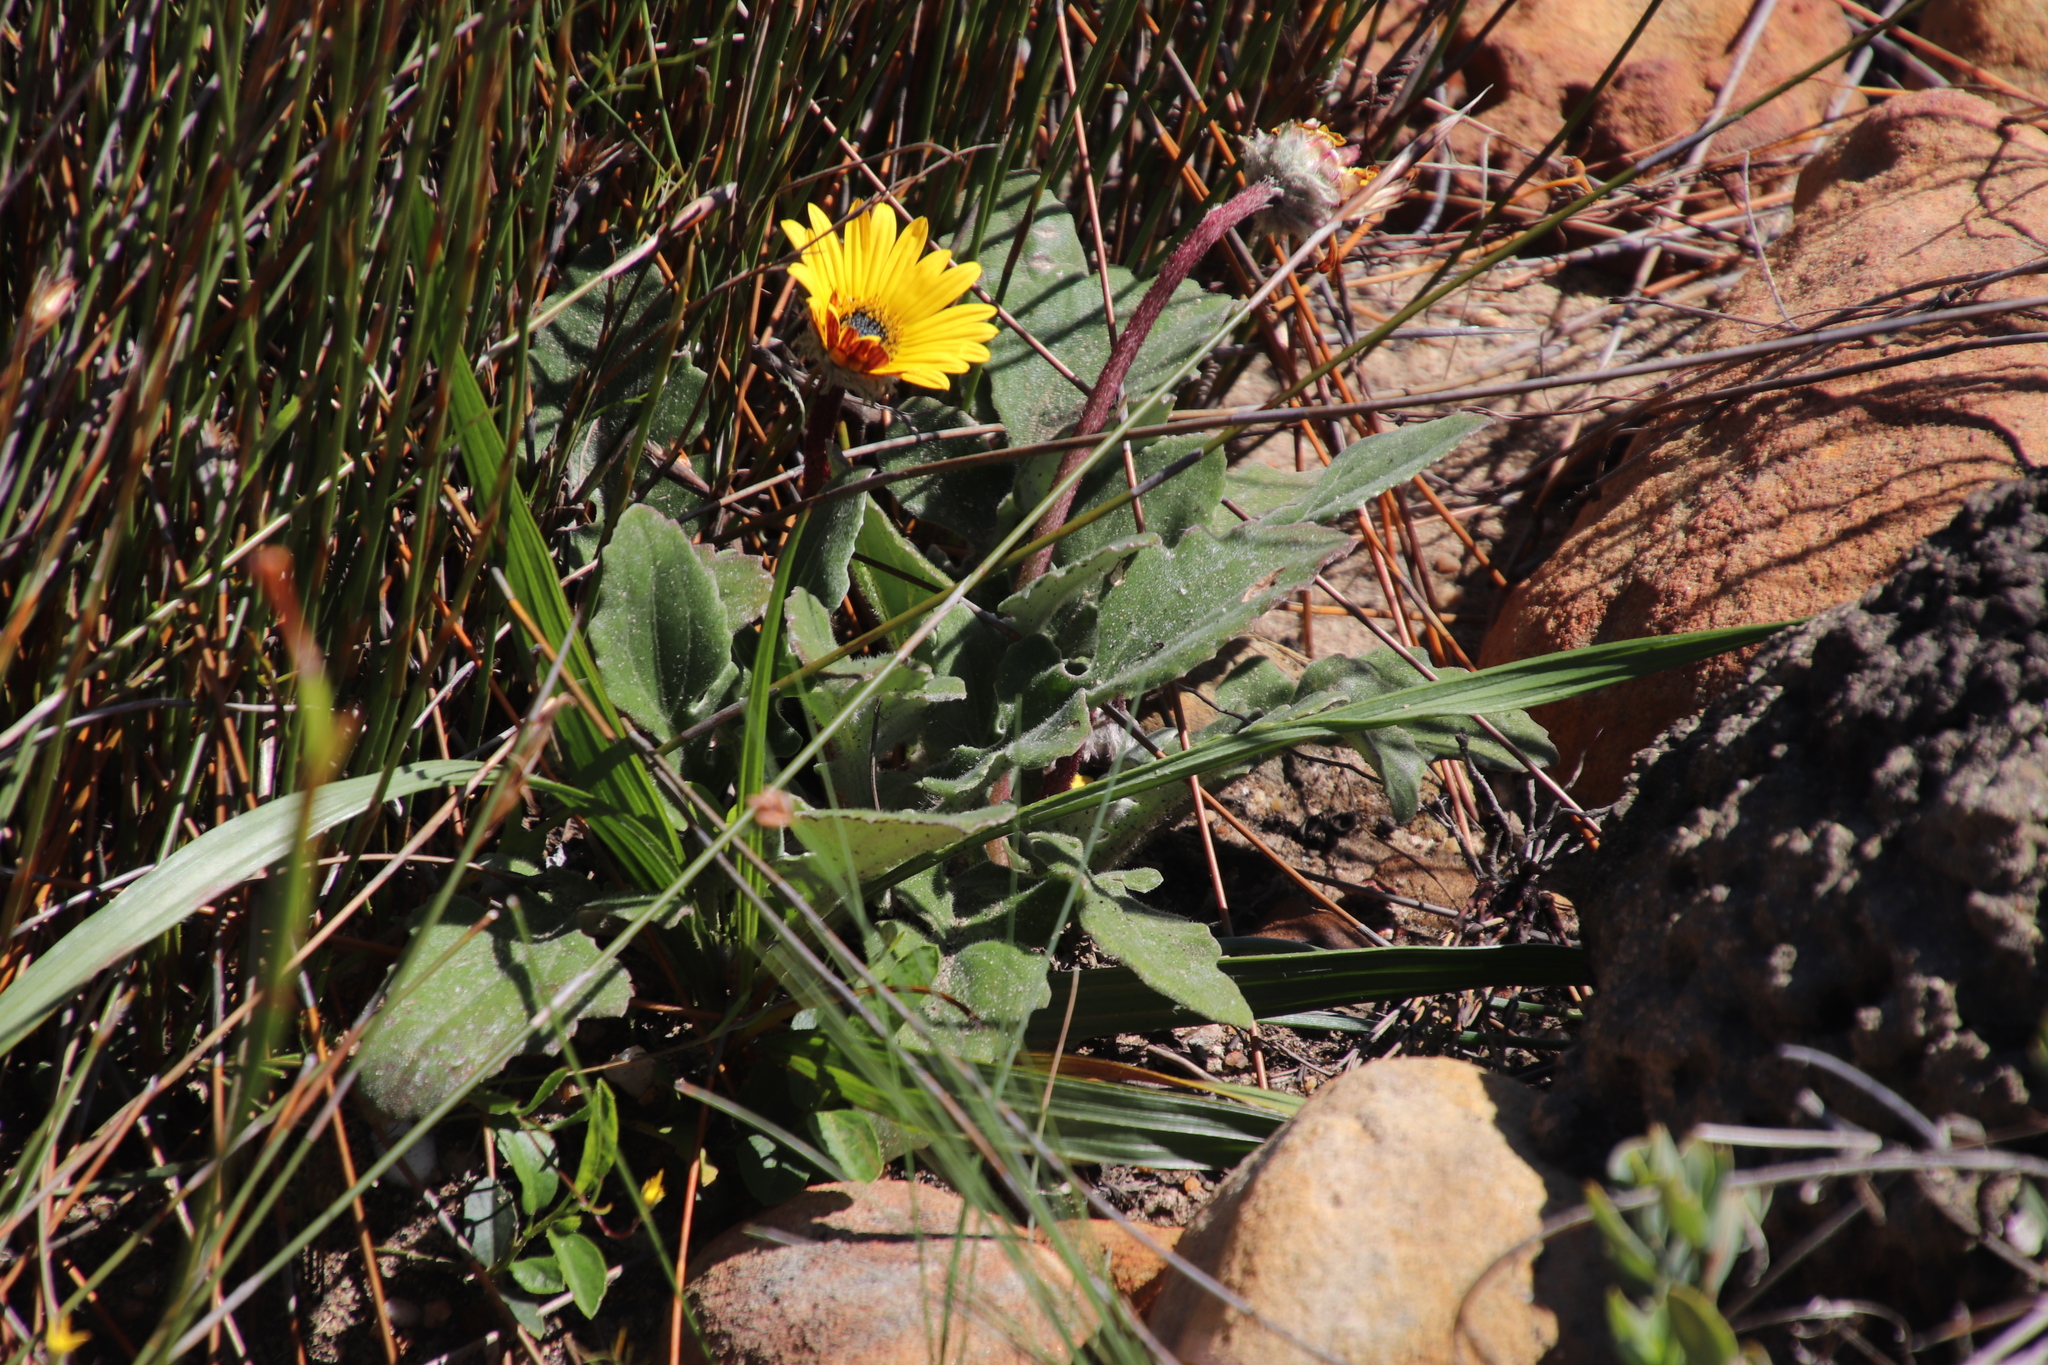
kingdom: Plantae
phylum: Tracheophyta
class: Magnoliopsida
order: Asterales
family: Asteraceae
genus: Haplocarpha
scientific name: Haplocarpha lanata
